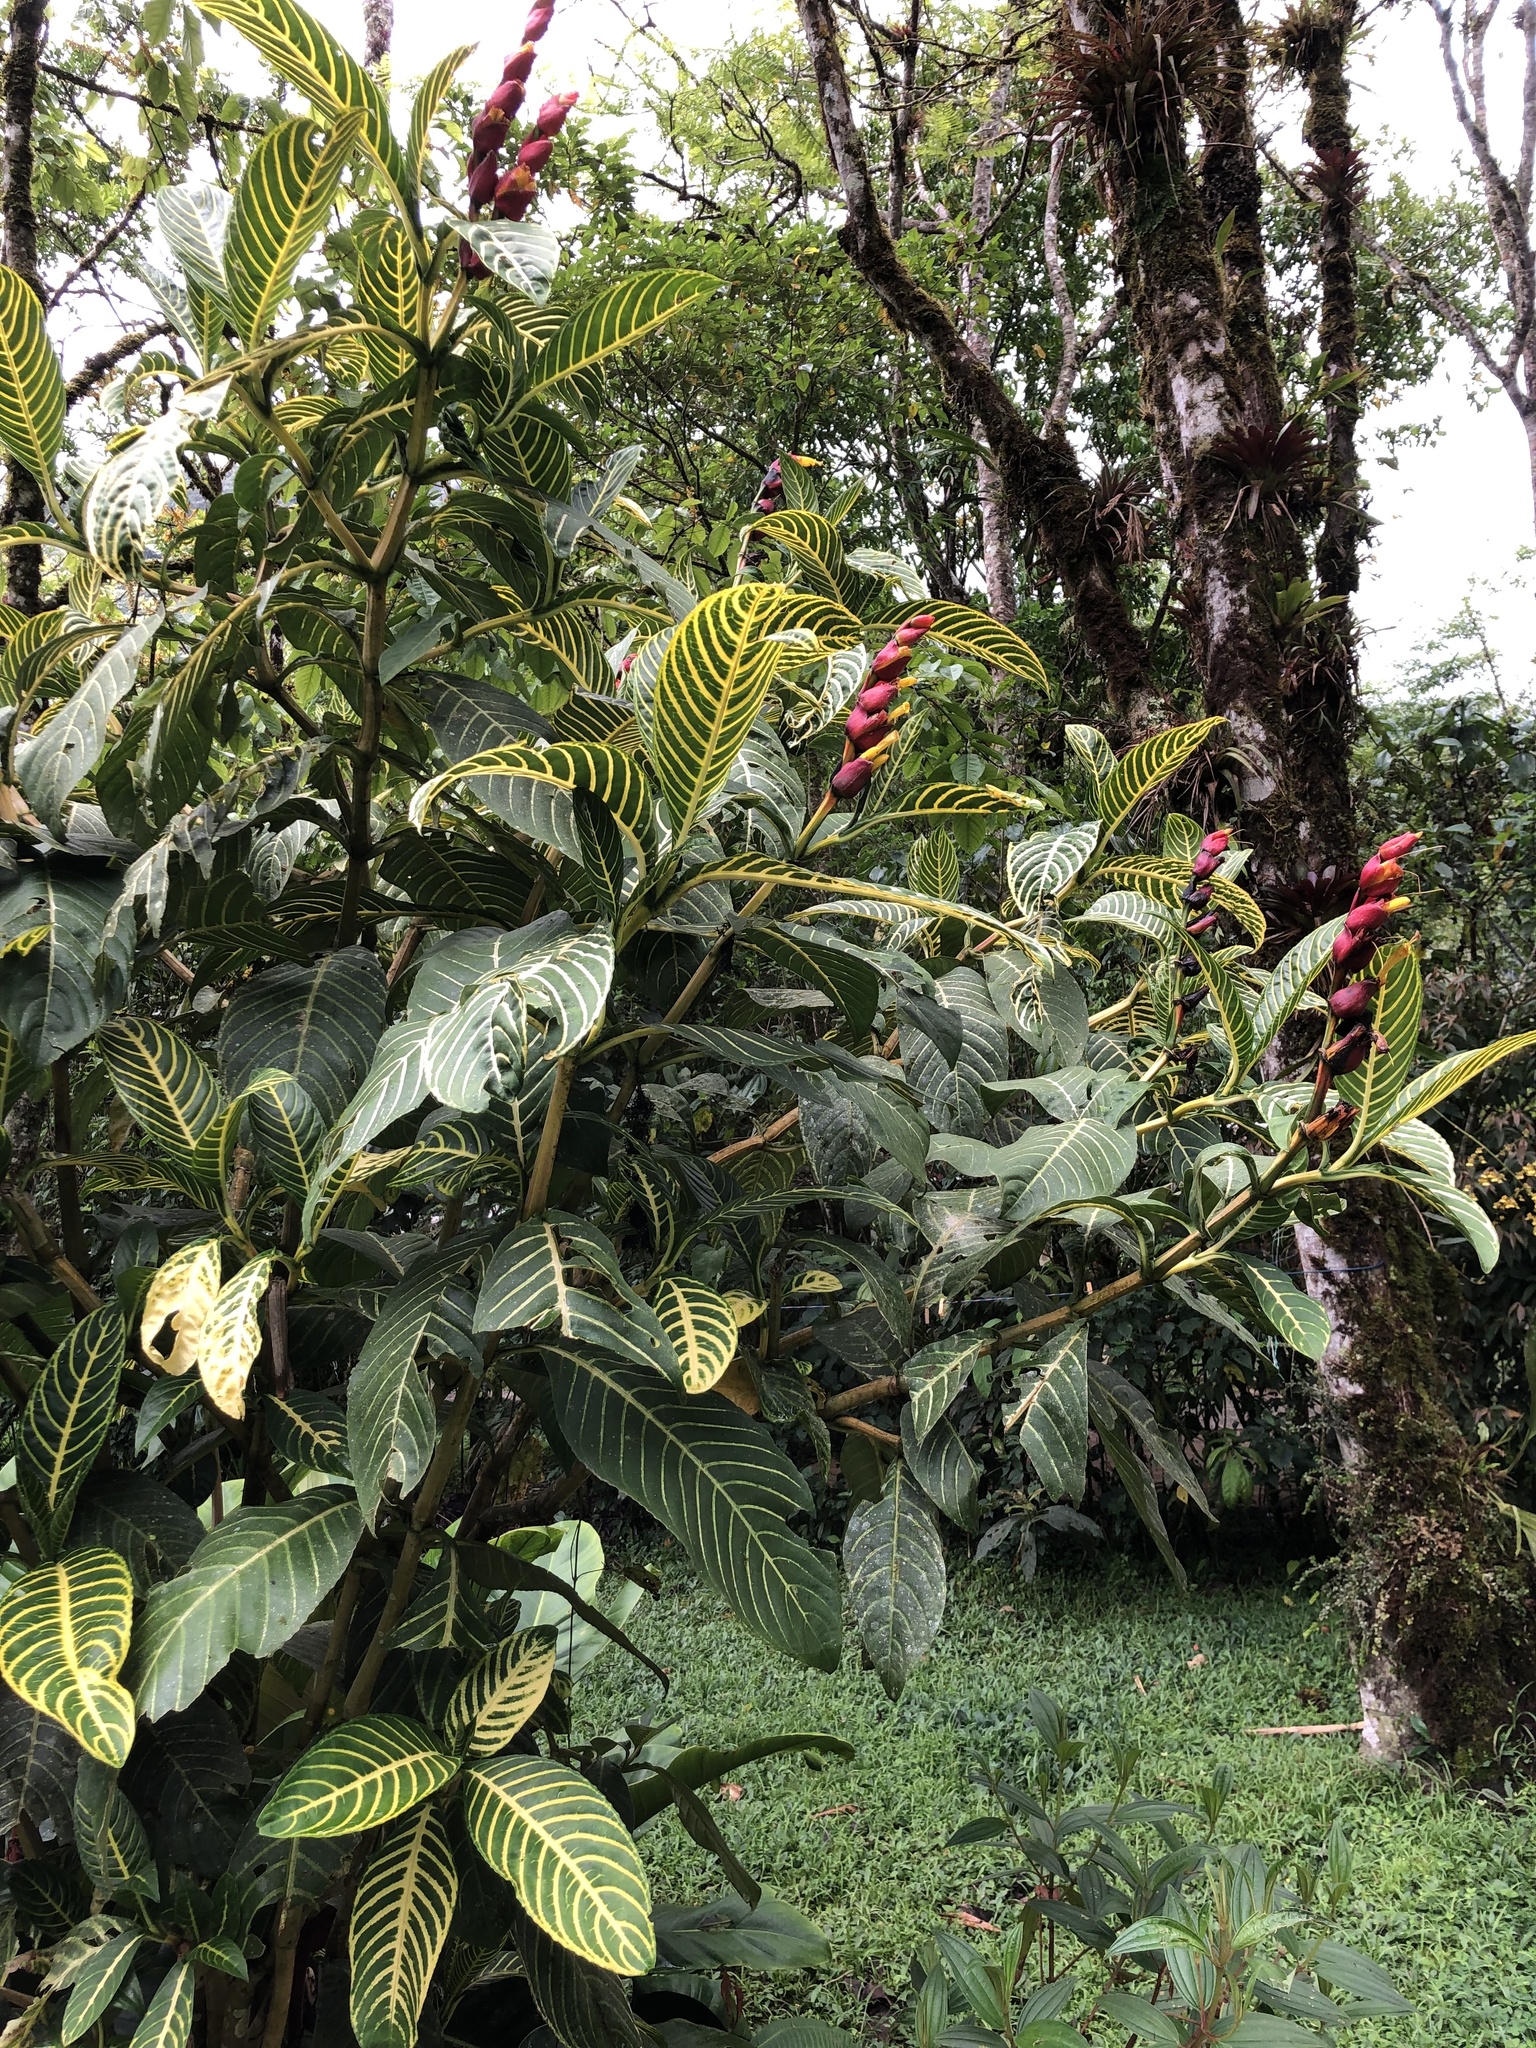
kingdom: Plantae
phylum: Tracheophyta
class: Magnoliopsida
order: Lamiales
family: Acanthaceae
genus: Sanchezia
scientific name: Sanchezia oblonga
